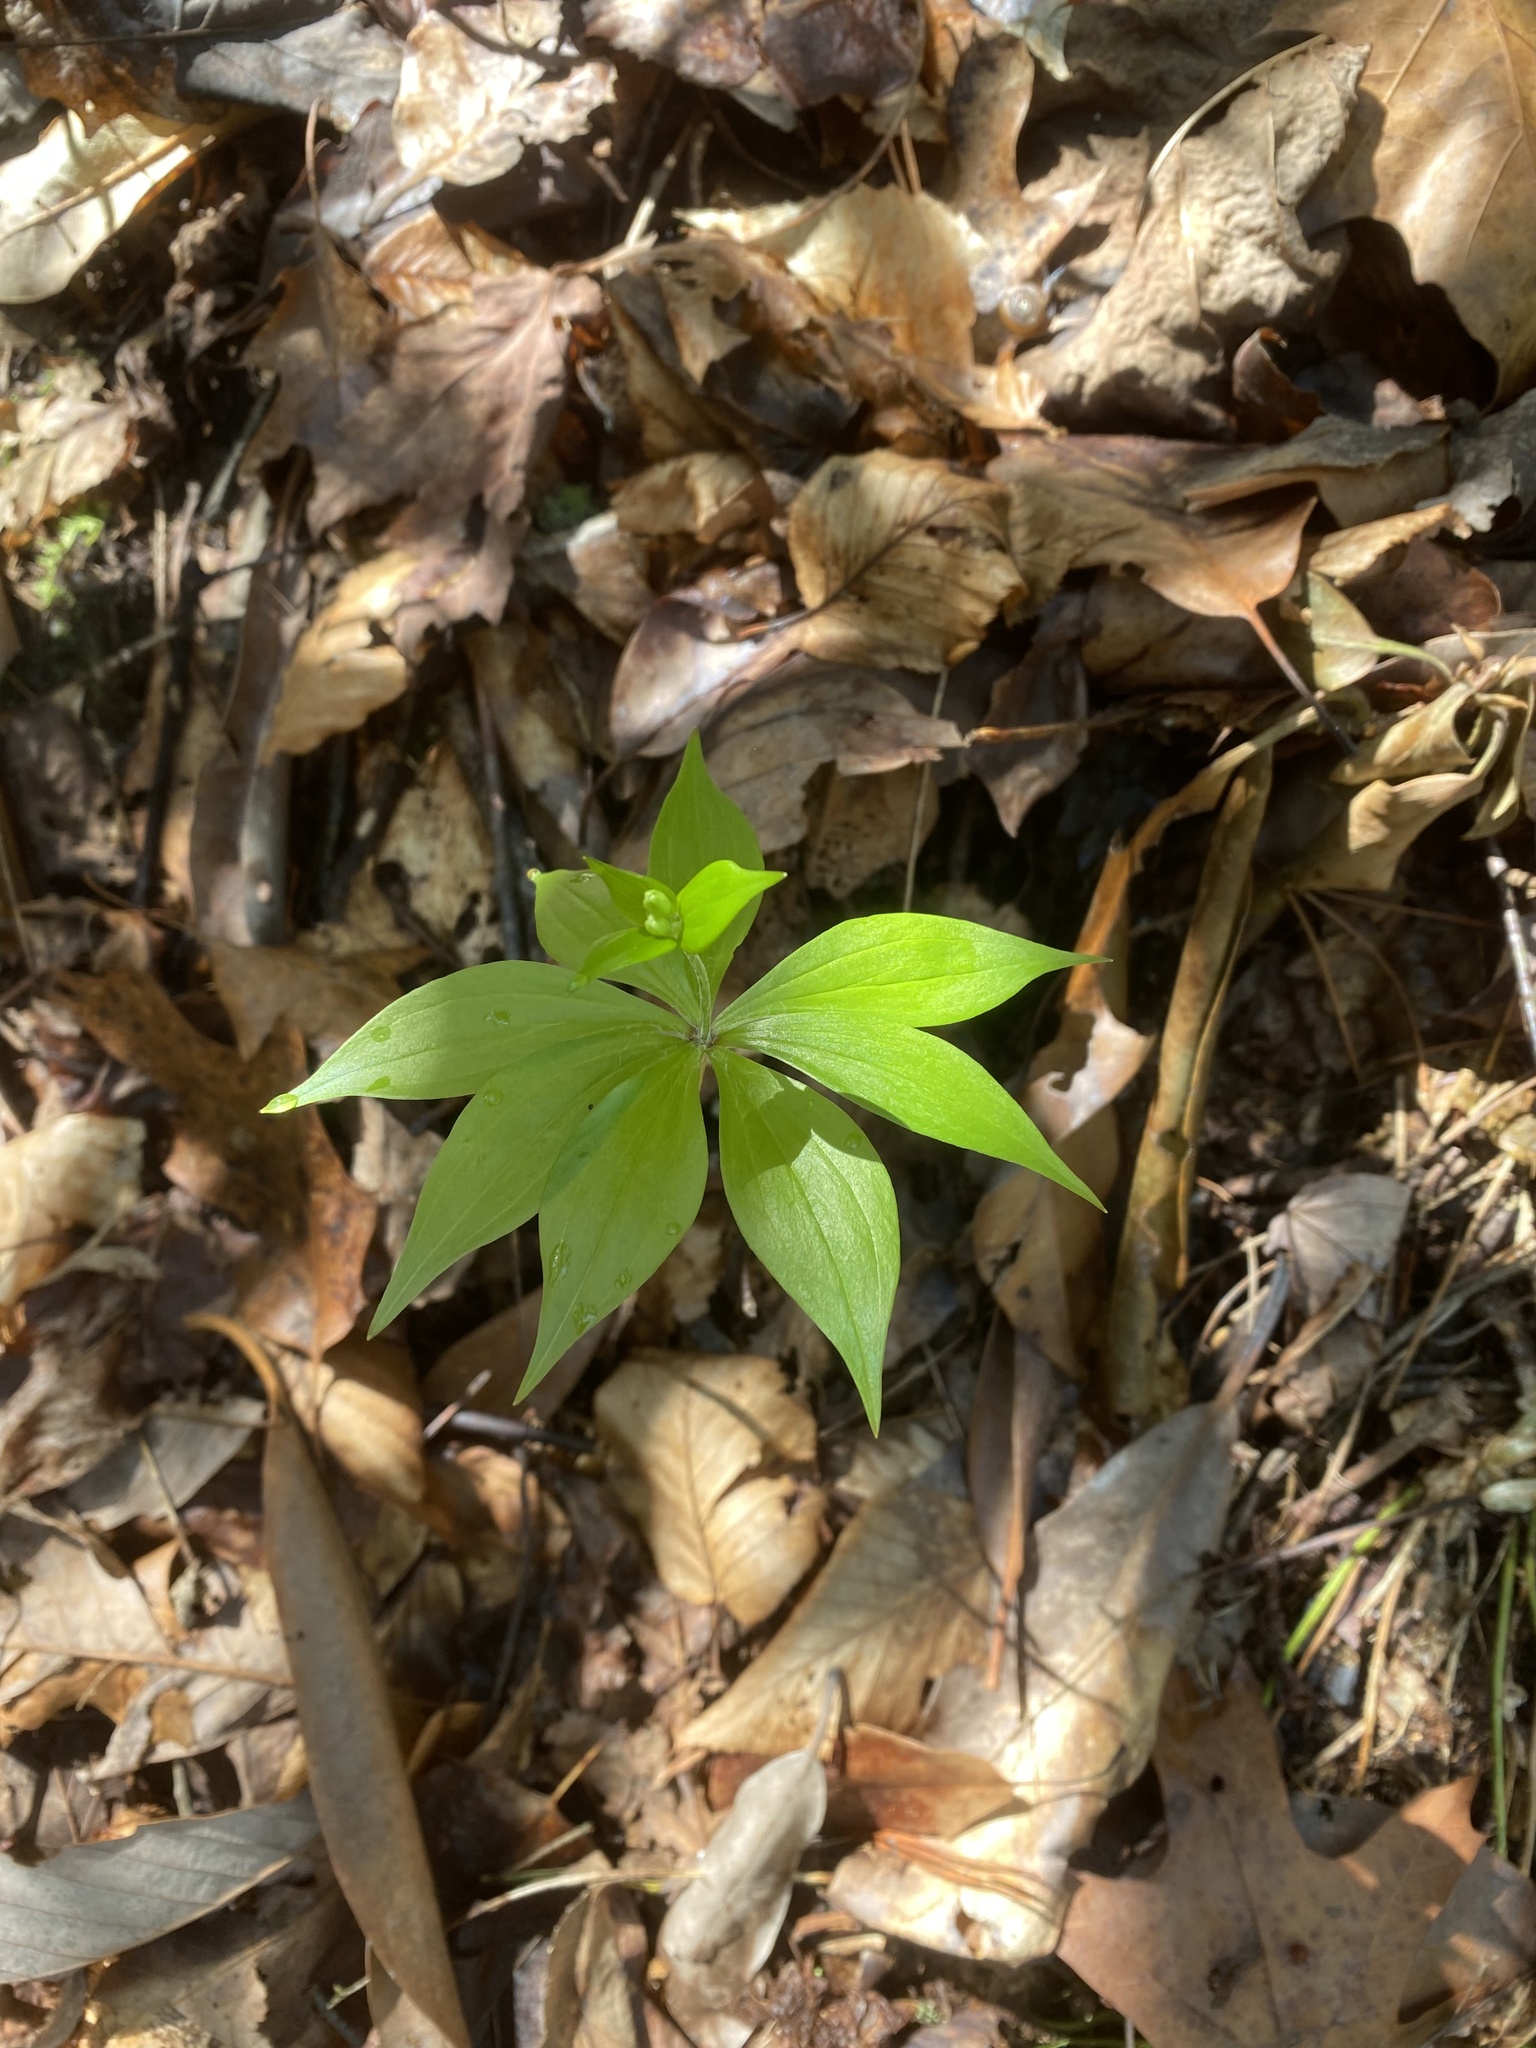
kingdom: Plantae
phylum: Tracheophyta
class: Liliopsida
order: Liliales
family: Liliaceae
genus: Medeola
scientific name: Medeola virginiana
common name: Indian cucumber-root
